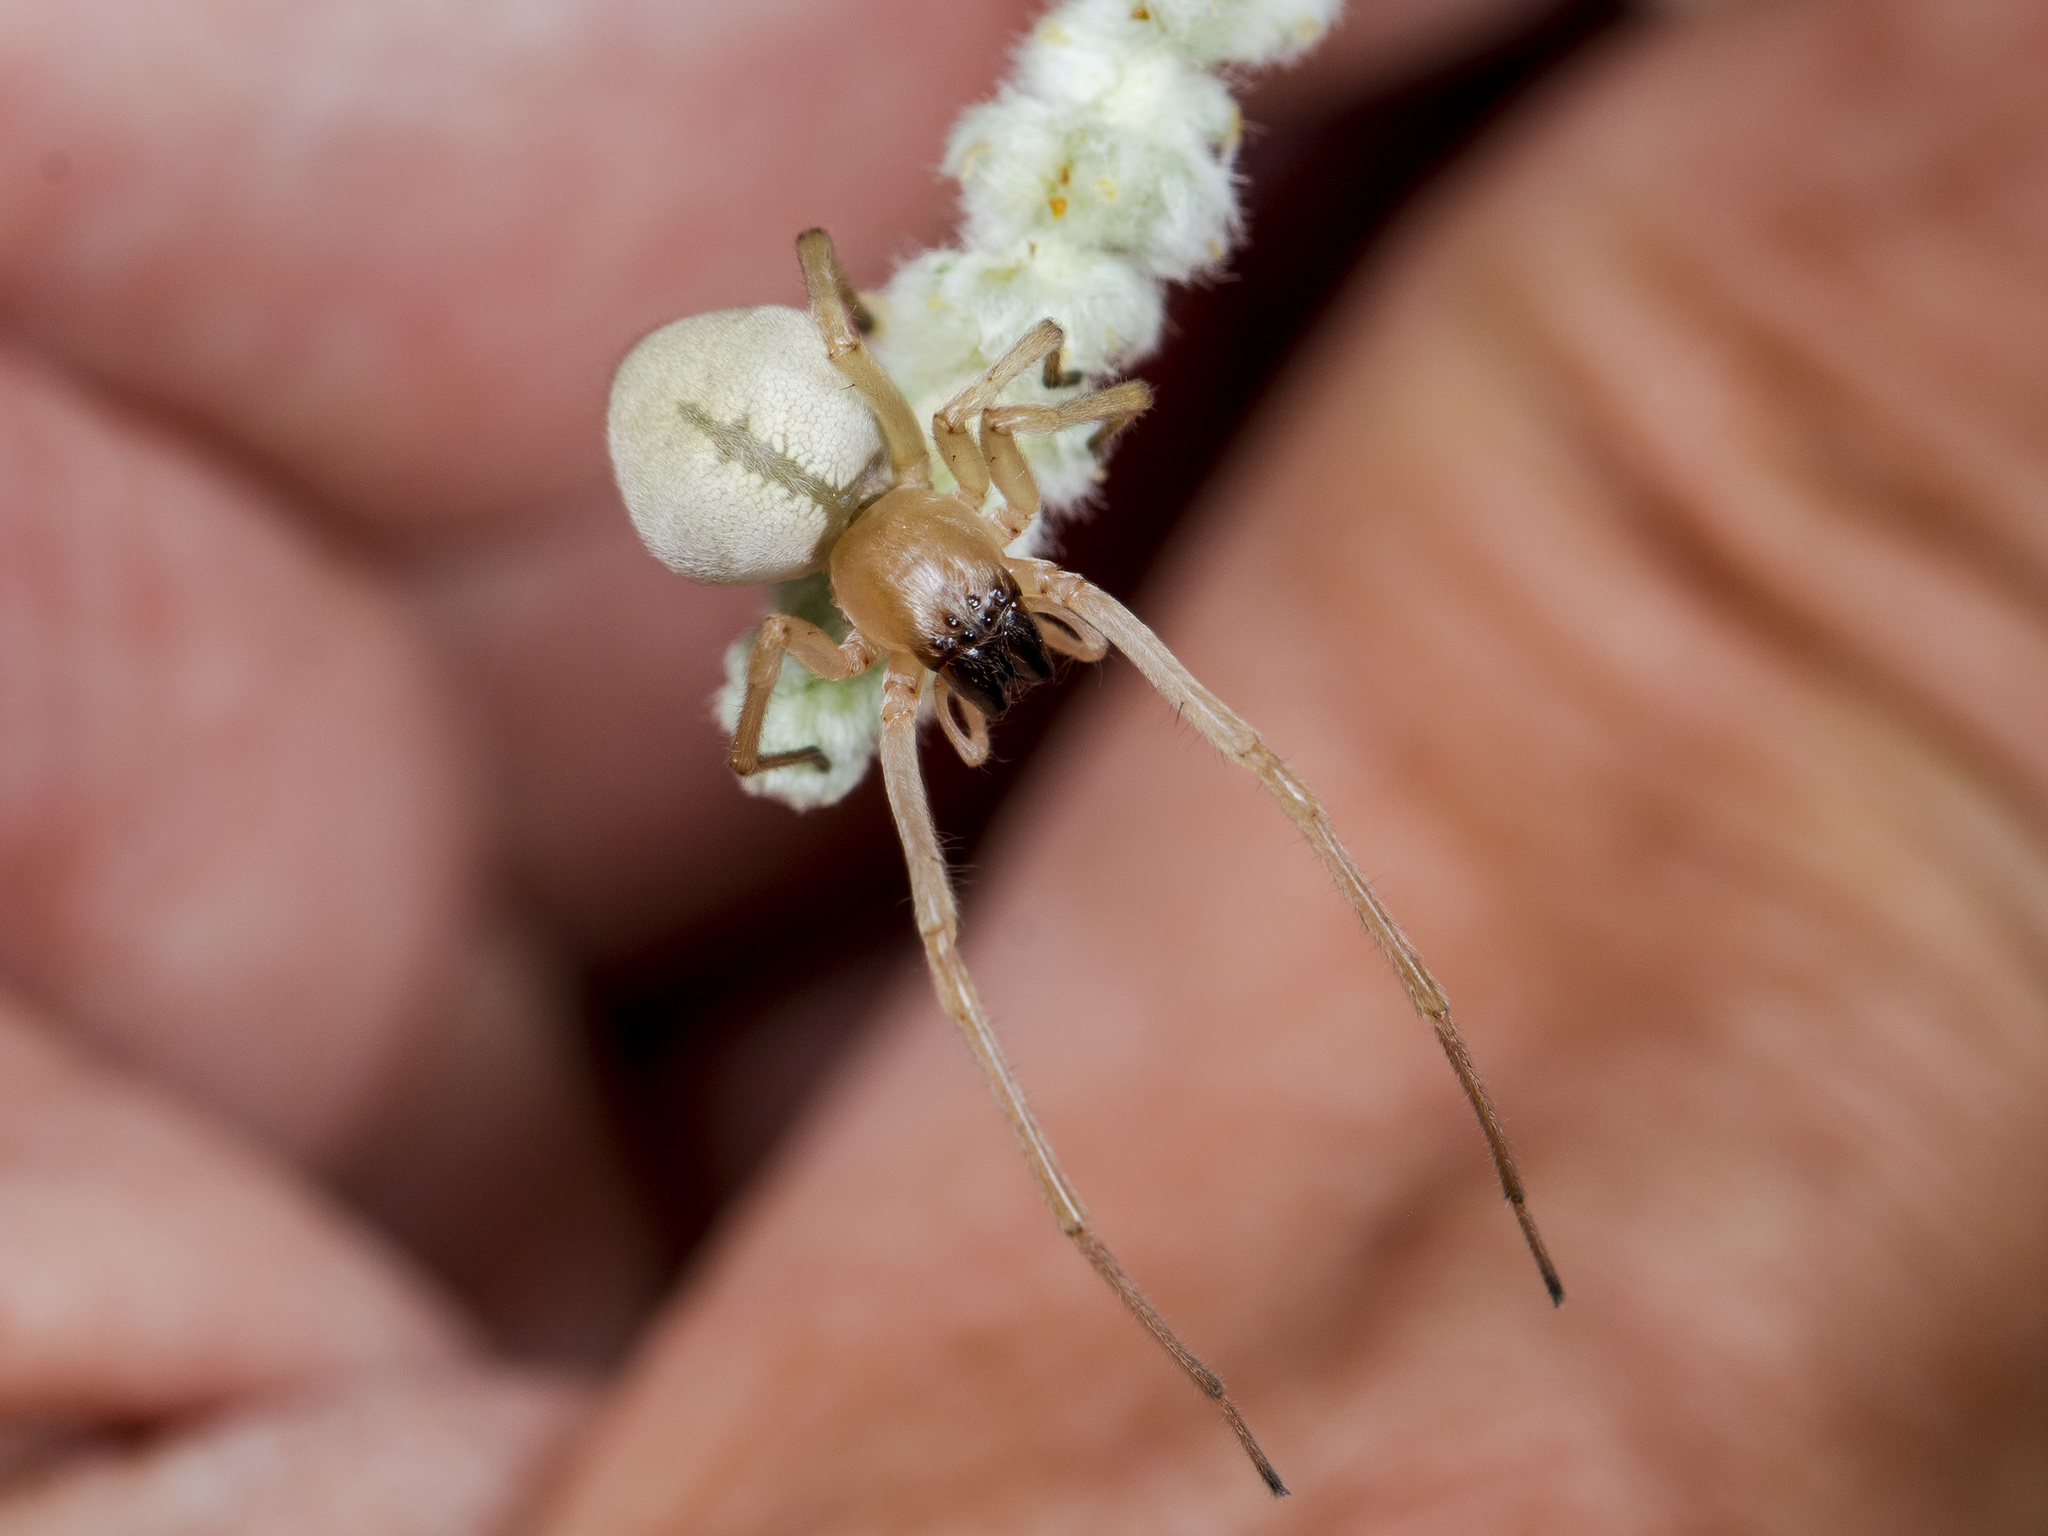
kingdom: Animalia
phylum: Arthropoda
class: Arachnida
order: Araneae
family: Cheiracanthiidae
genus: Cheiracanthium
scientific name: Cheiracanthium virescens
